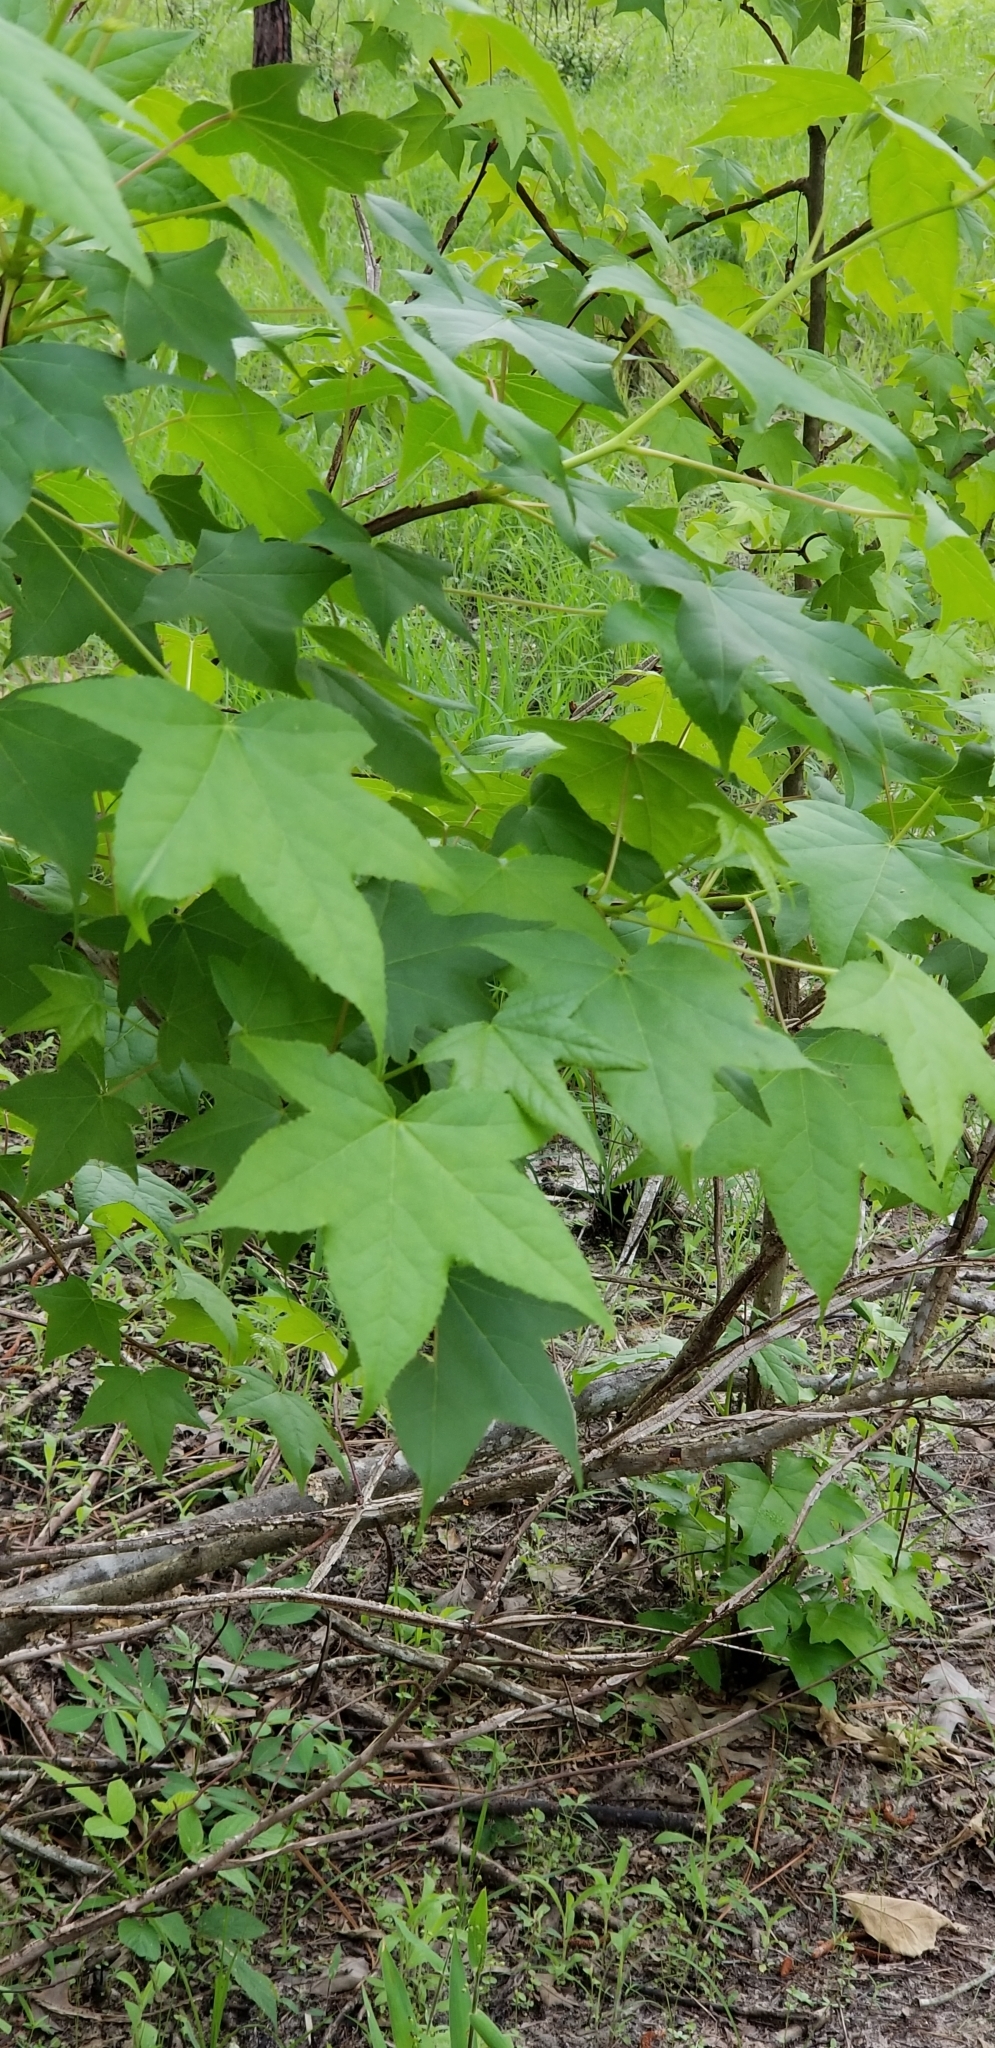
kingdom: Plantae
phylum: Tracheophyta
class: Magnoliopsida
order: Saxifragales
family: Altingiaceae
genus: Liquidambar
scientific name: Liquidambar styraciflua
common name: Sweet gum
